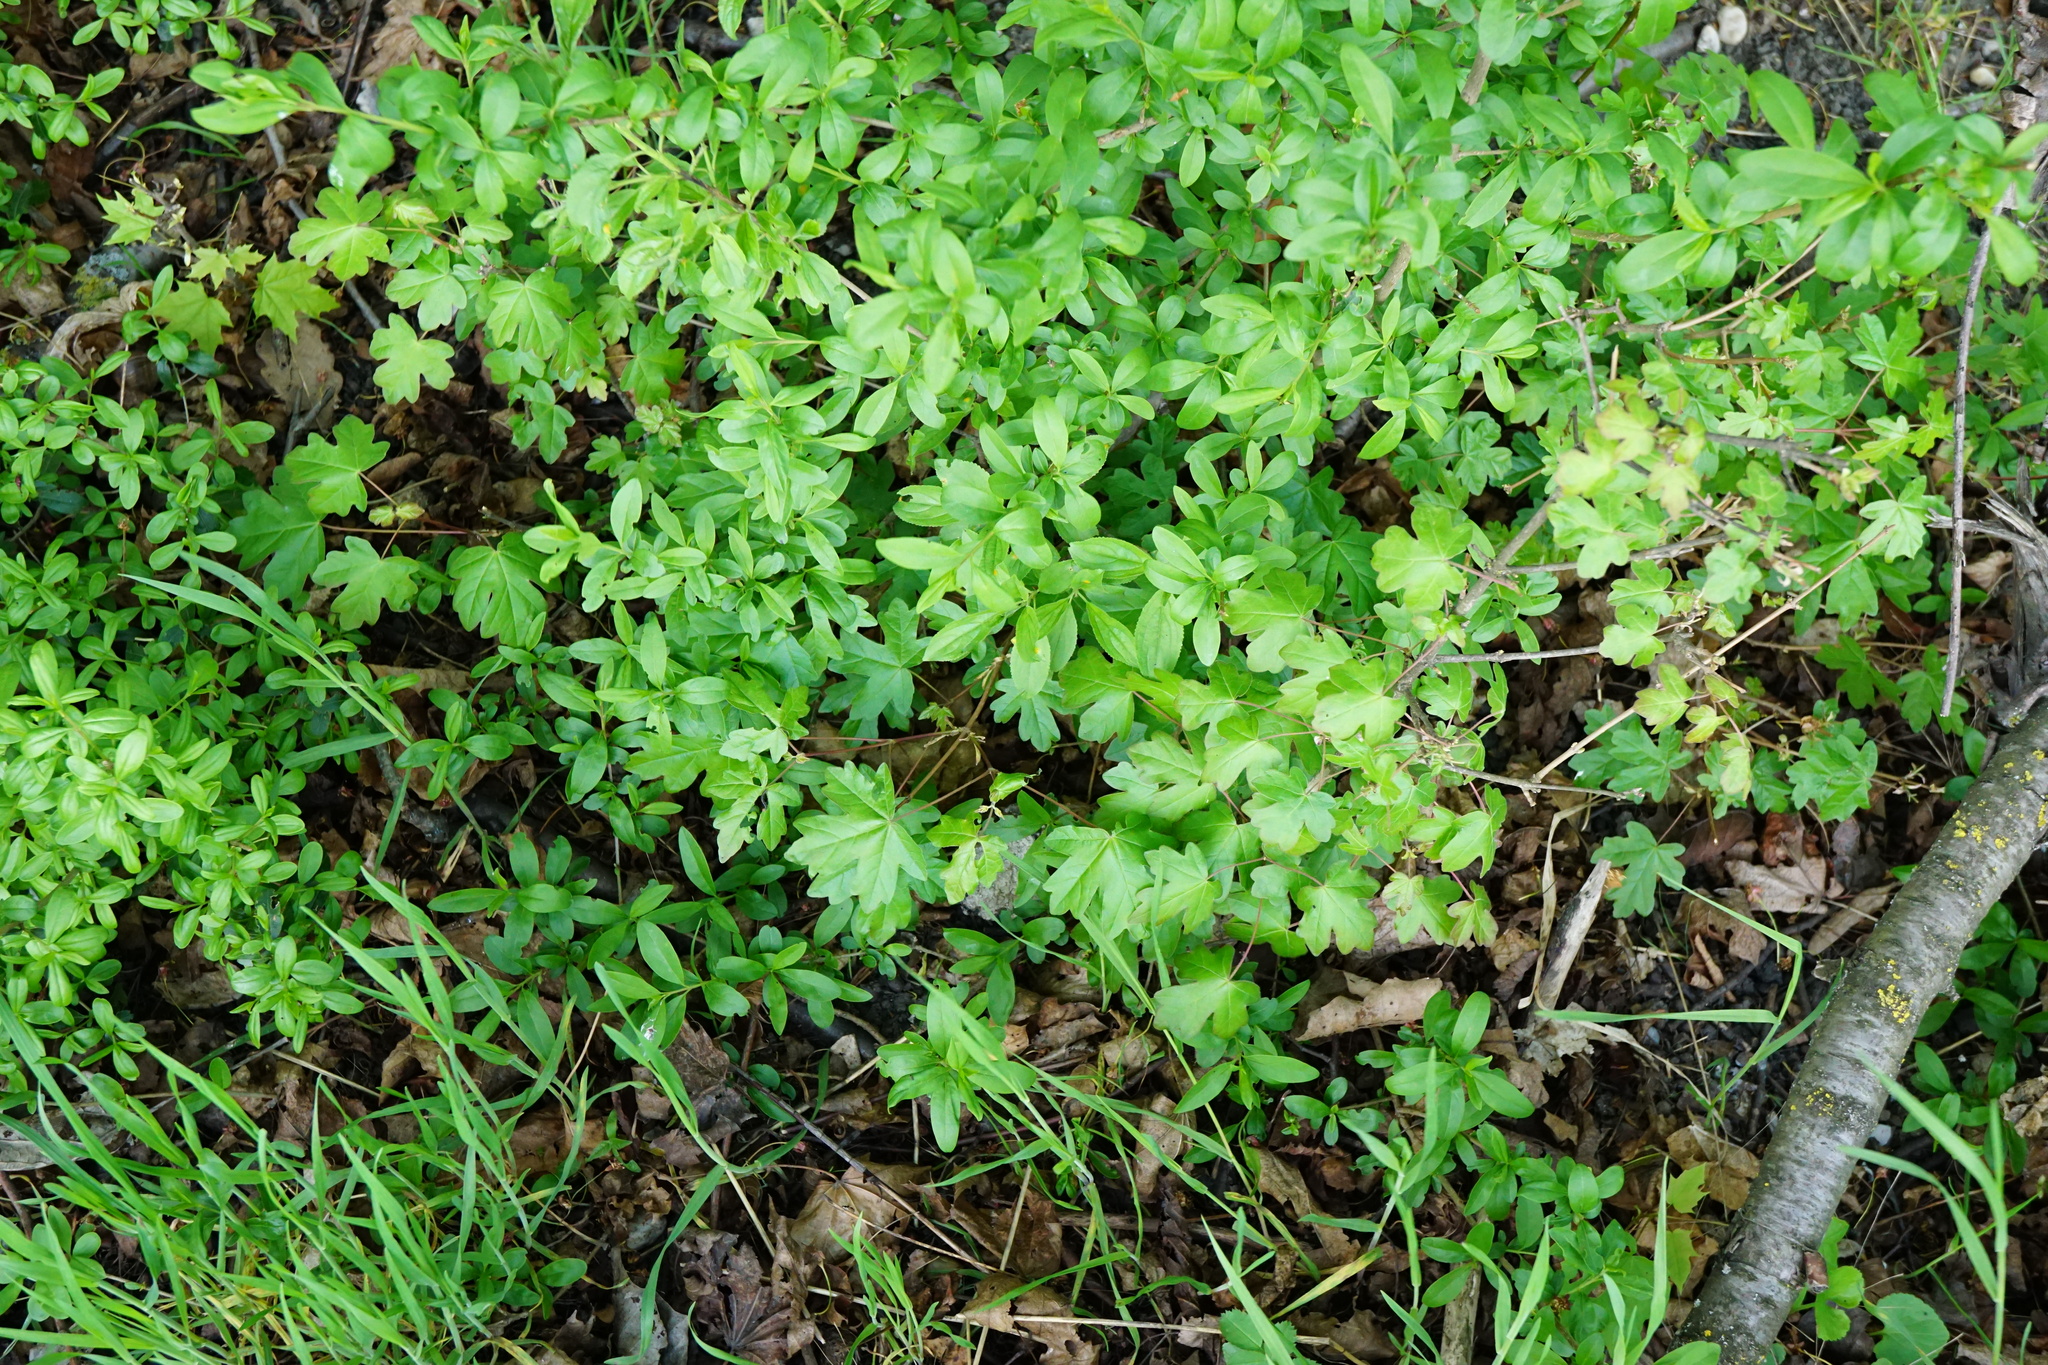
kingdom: Plantae
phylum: Tracheophyta
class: Magnoliopsida
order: Sapindales
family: Sapindaceae
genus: Acer
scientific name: Acer campestre
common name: Field maple
